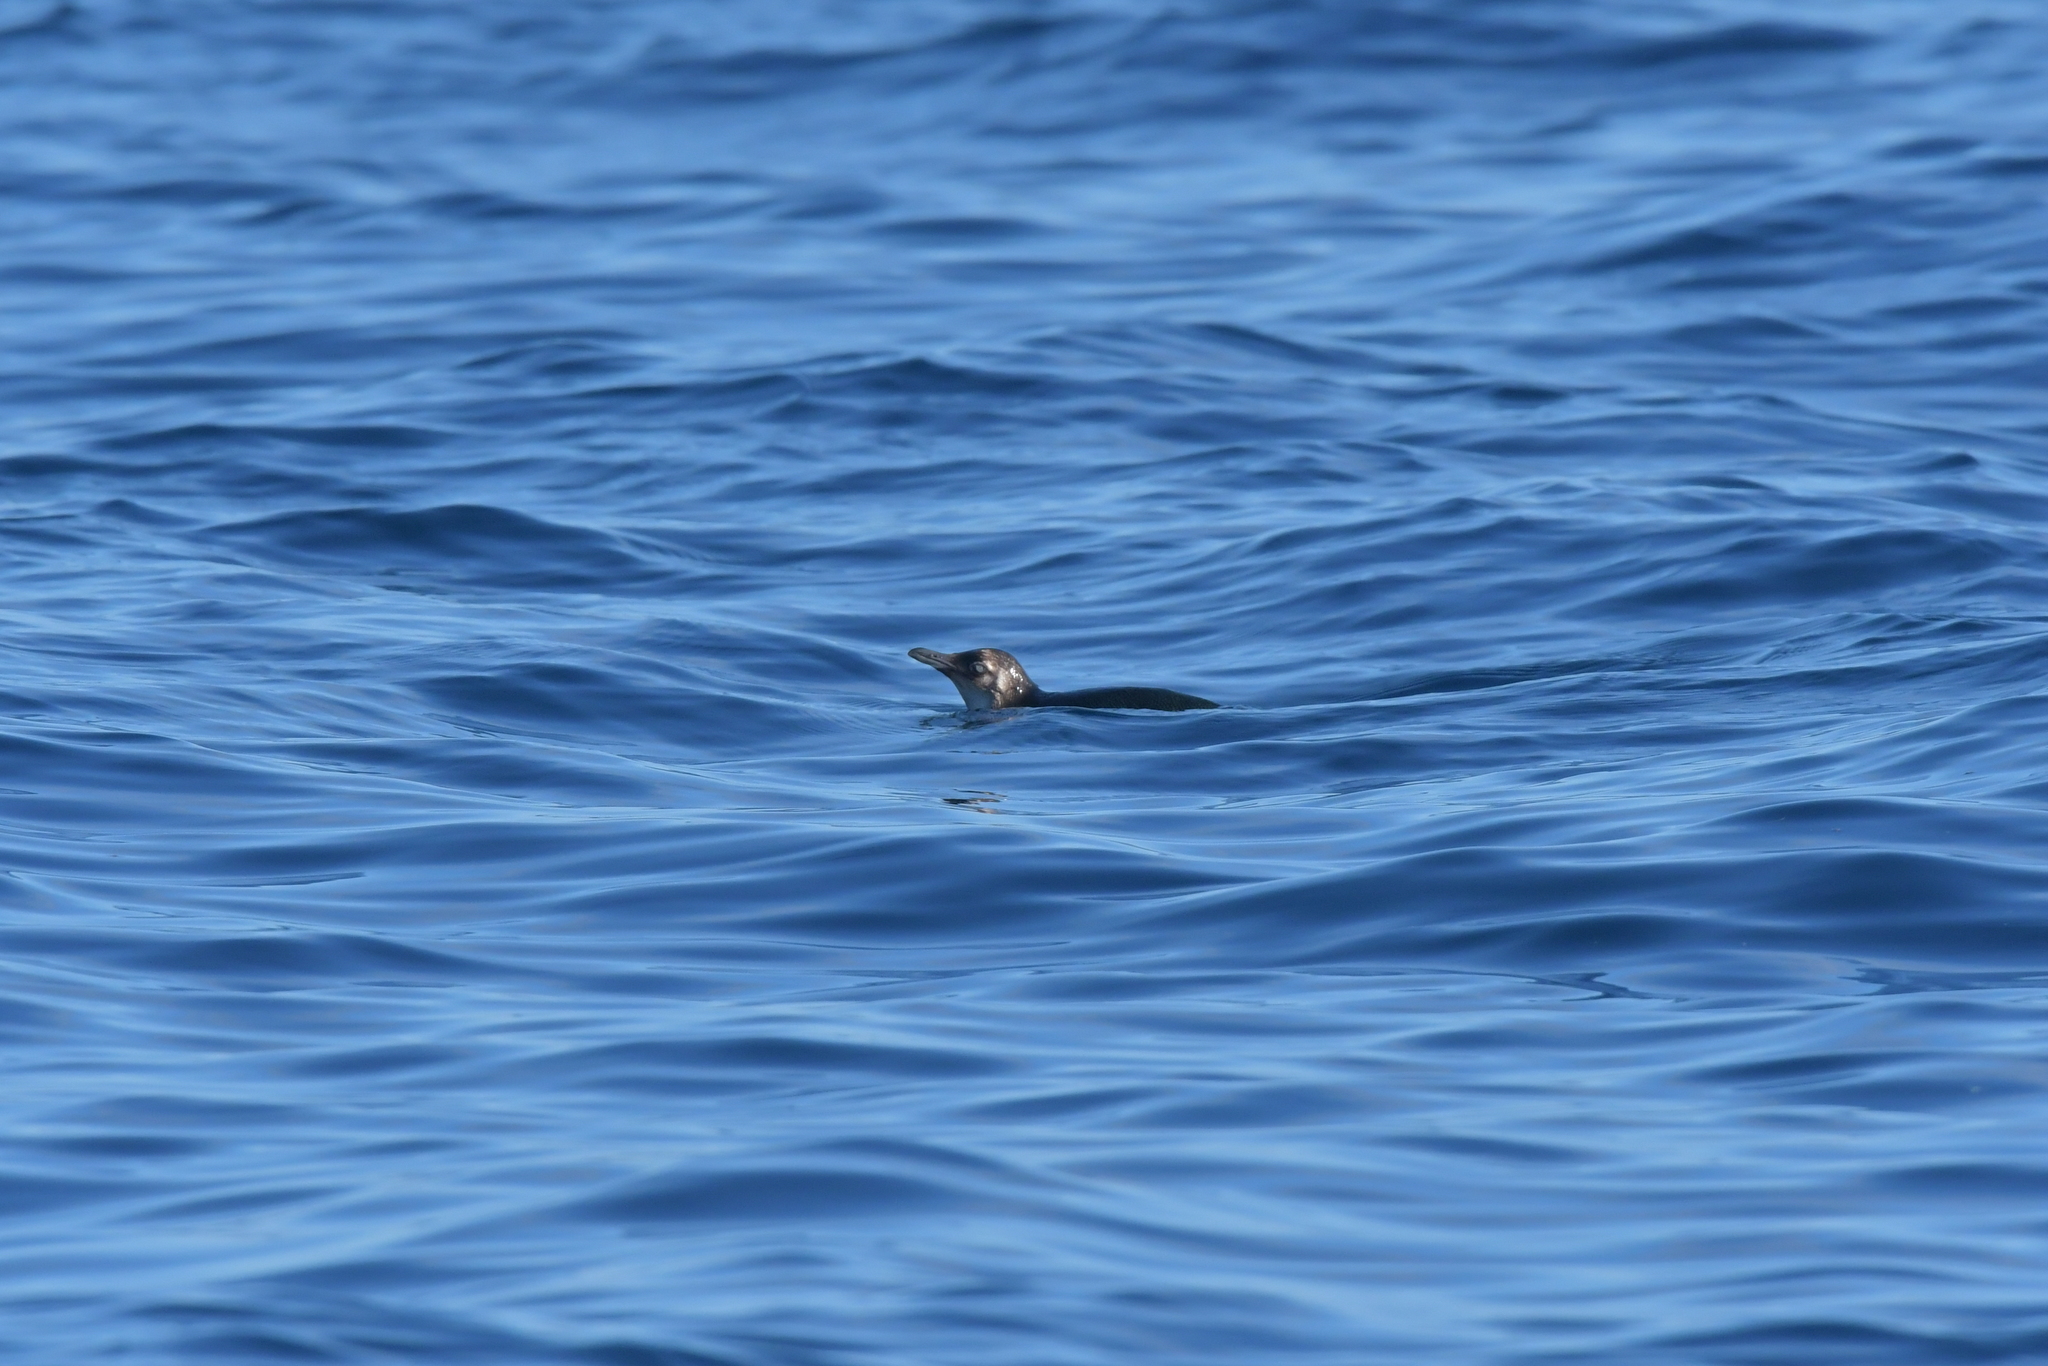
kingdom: Animalia
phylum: Chordata
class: Aves
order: Sphenisciformes
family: Spheniscidae
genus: Eudyptula
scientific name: Eudyptula minor
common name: Little penguin
